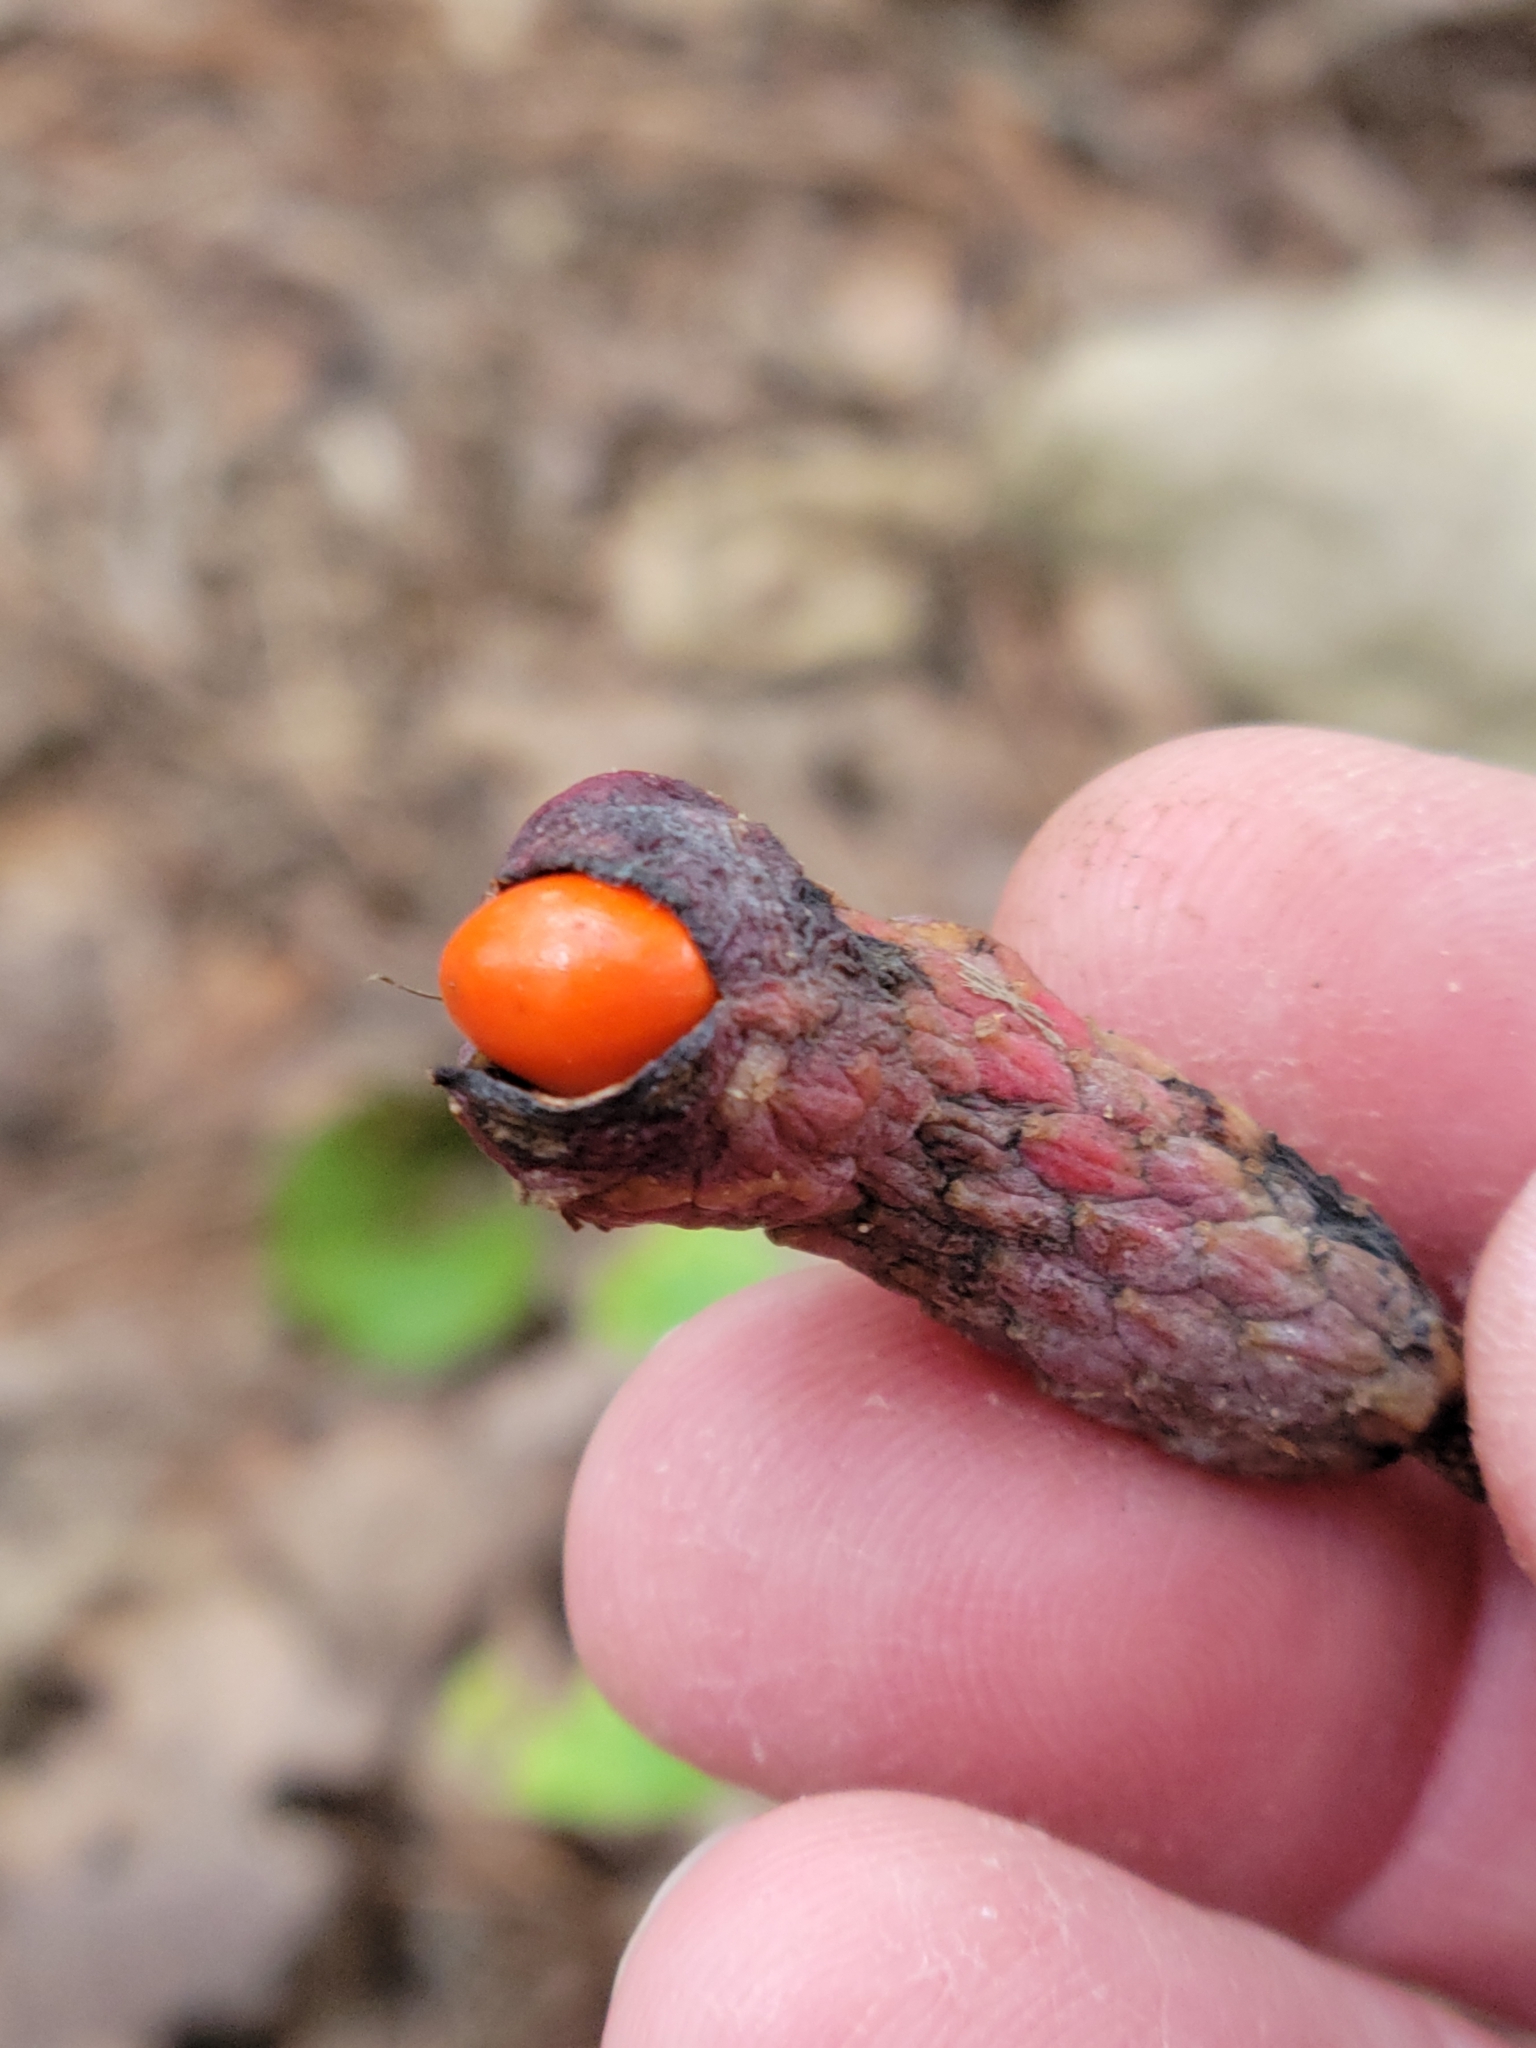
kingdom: Plantae
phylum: Tracheophyta
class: Magnoliopsida
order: Magnoliales
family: Magnoliaceae
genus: Magnolia
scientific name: Magnolia acuminata
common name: Cucumber magnolia
